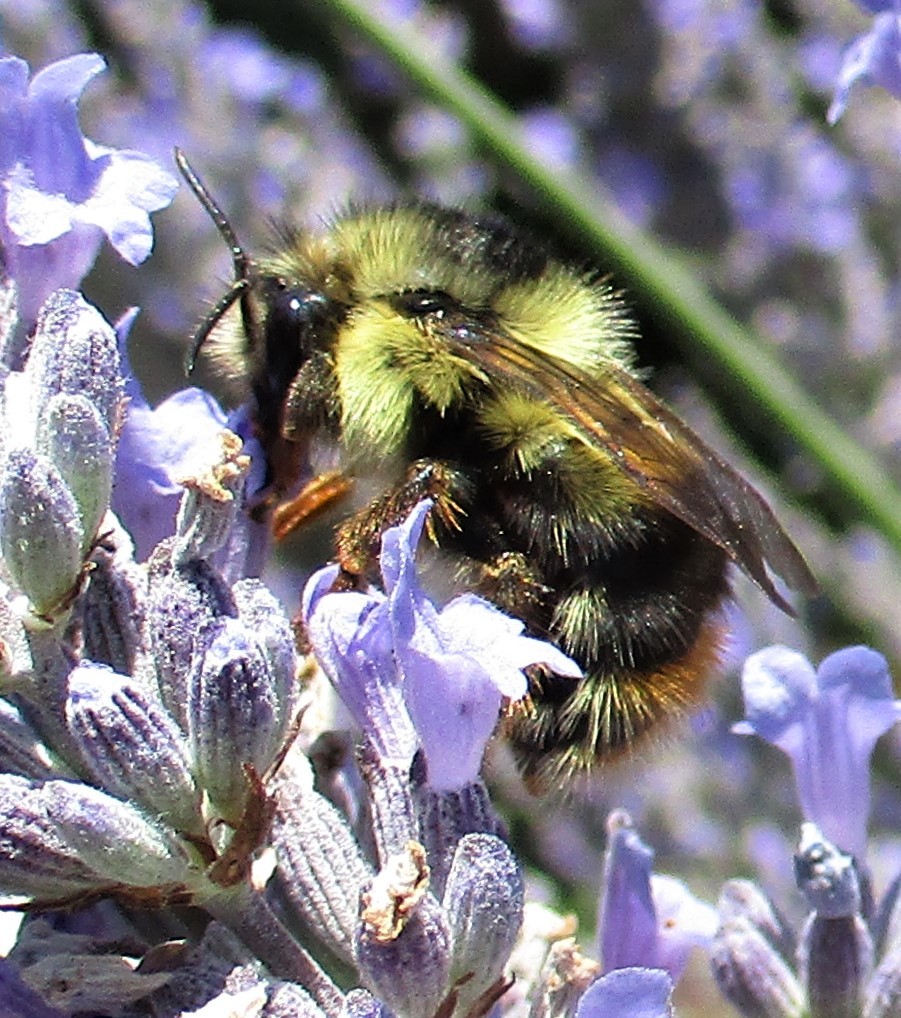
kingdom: Animalia
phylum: Arthropoda
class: Insecta
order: Hymenoptera
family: Apidae
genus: Bombus
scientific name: Bombus mixtus
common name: Fuzzy-horned bumble bee
